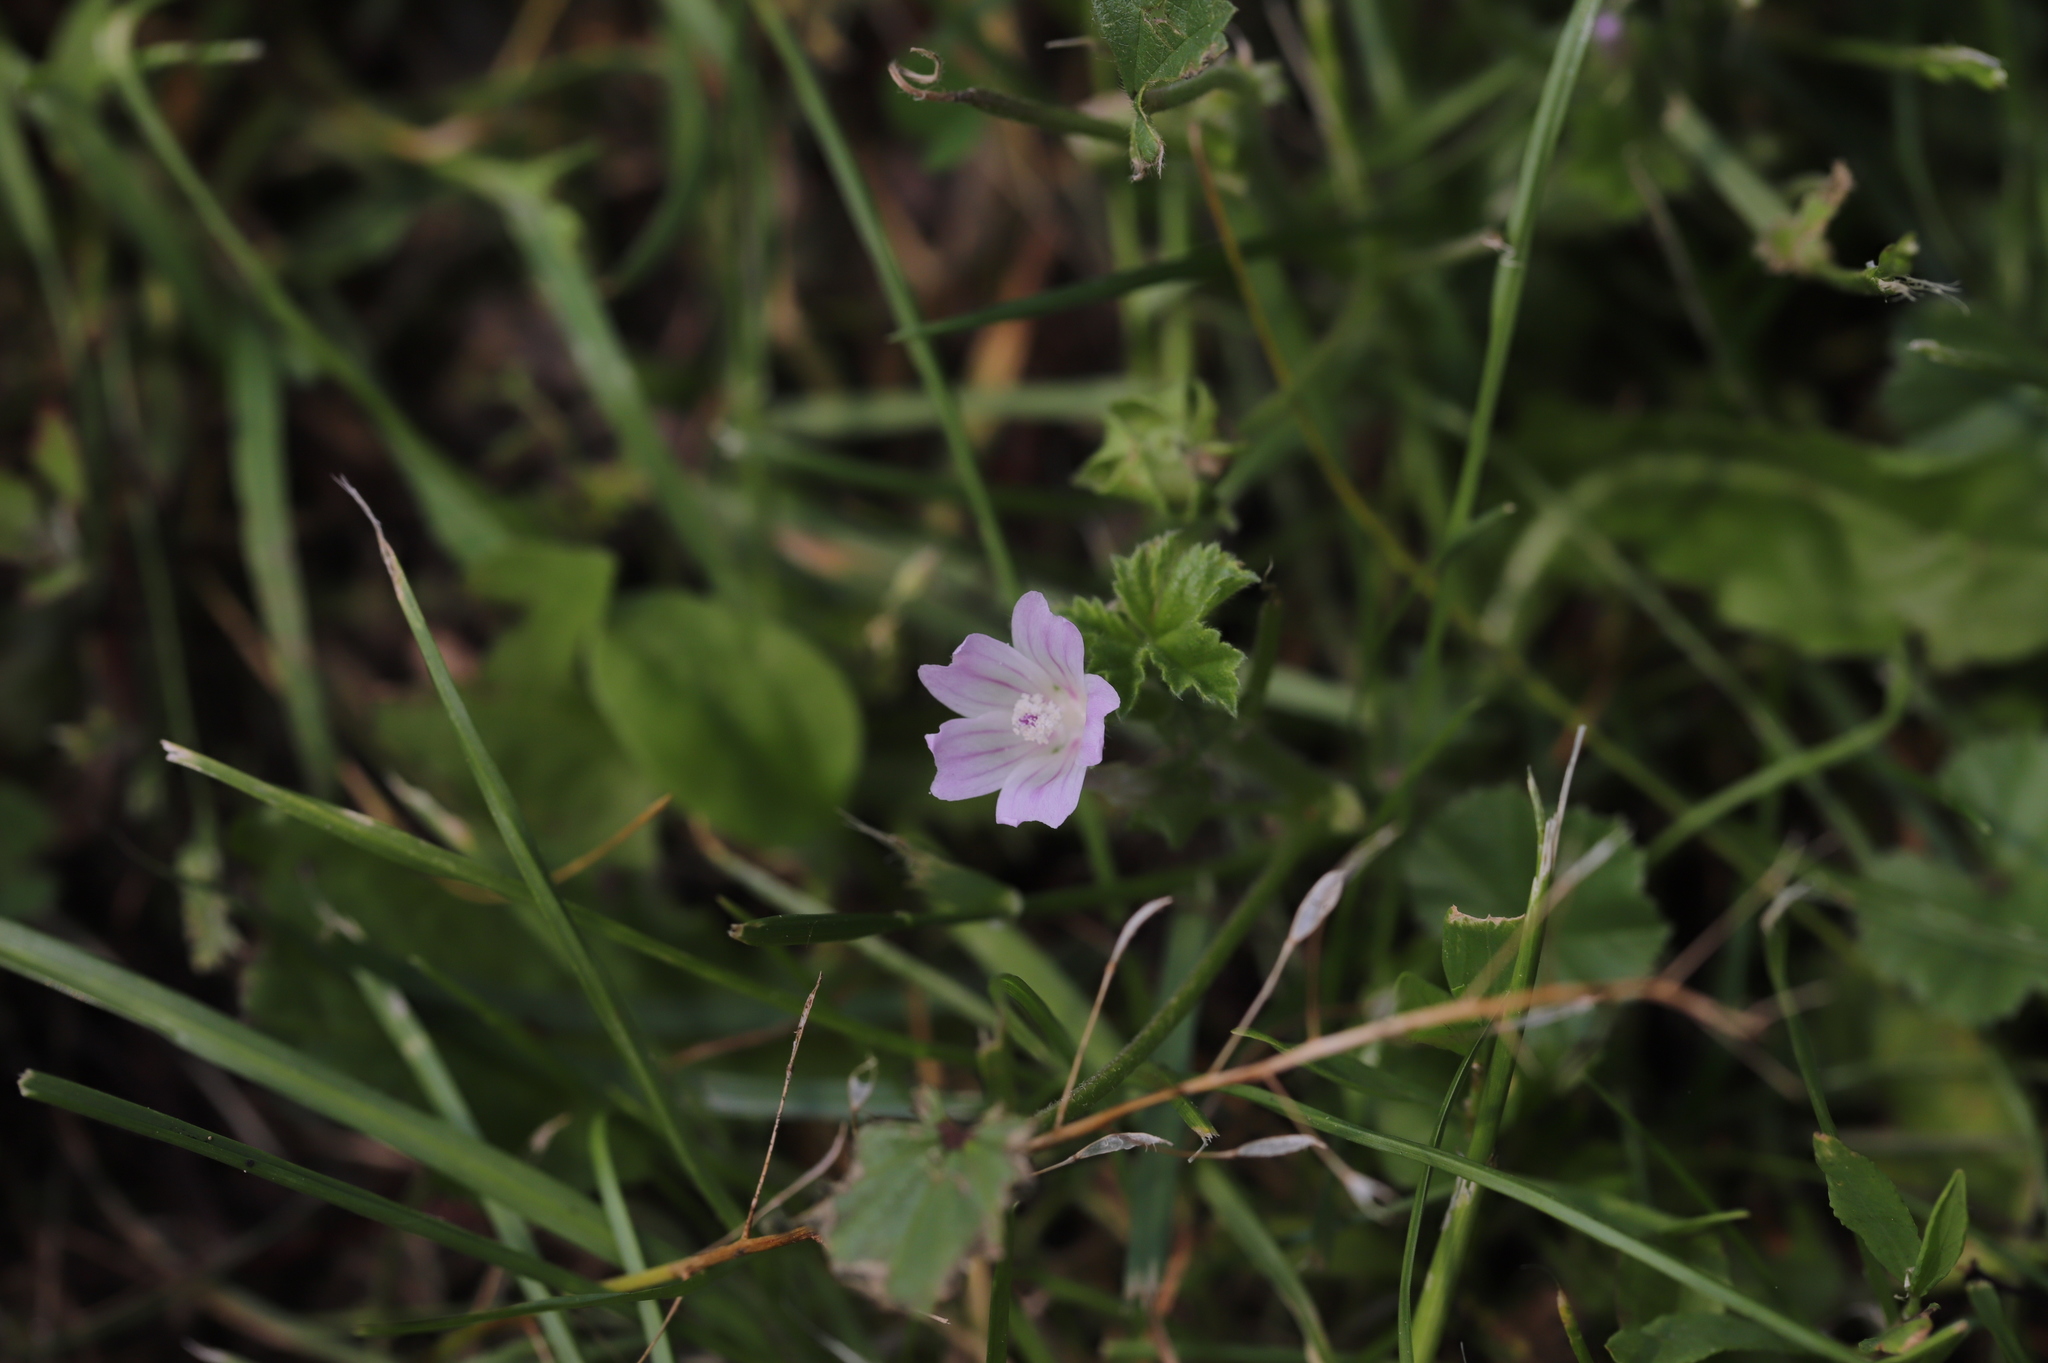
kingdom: Plantae
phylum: Tracheophyta
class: Magnoliopsida
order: Malvales
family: Malvaceae
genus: Malva
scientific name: Malva neglecta
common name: Common mallow
